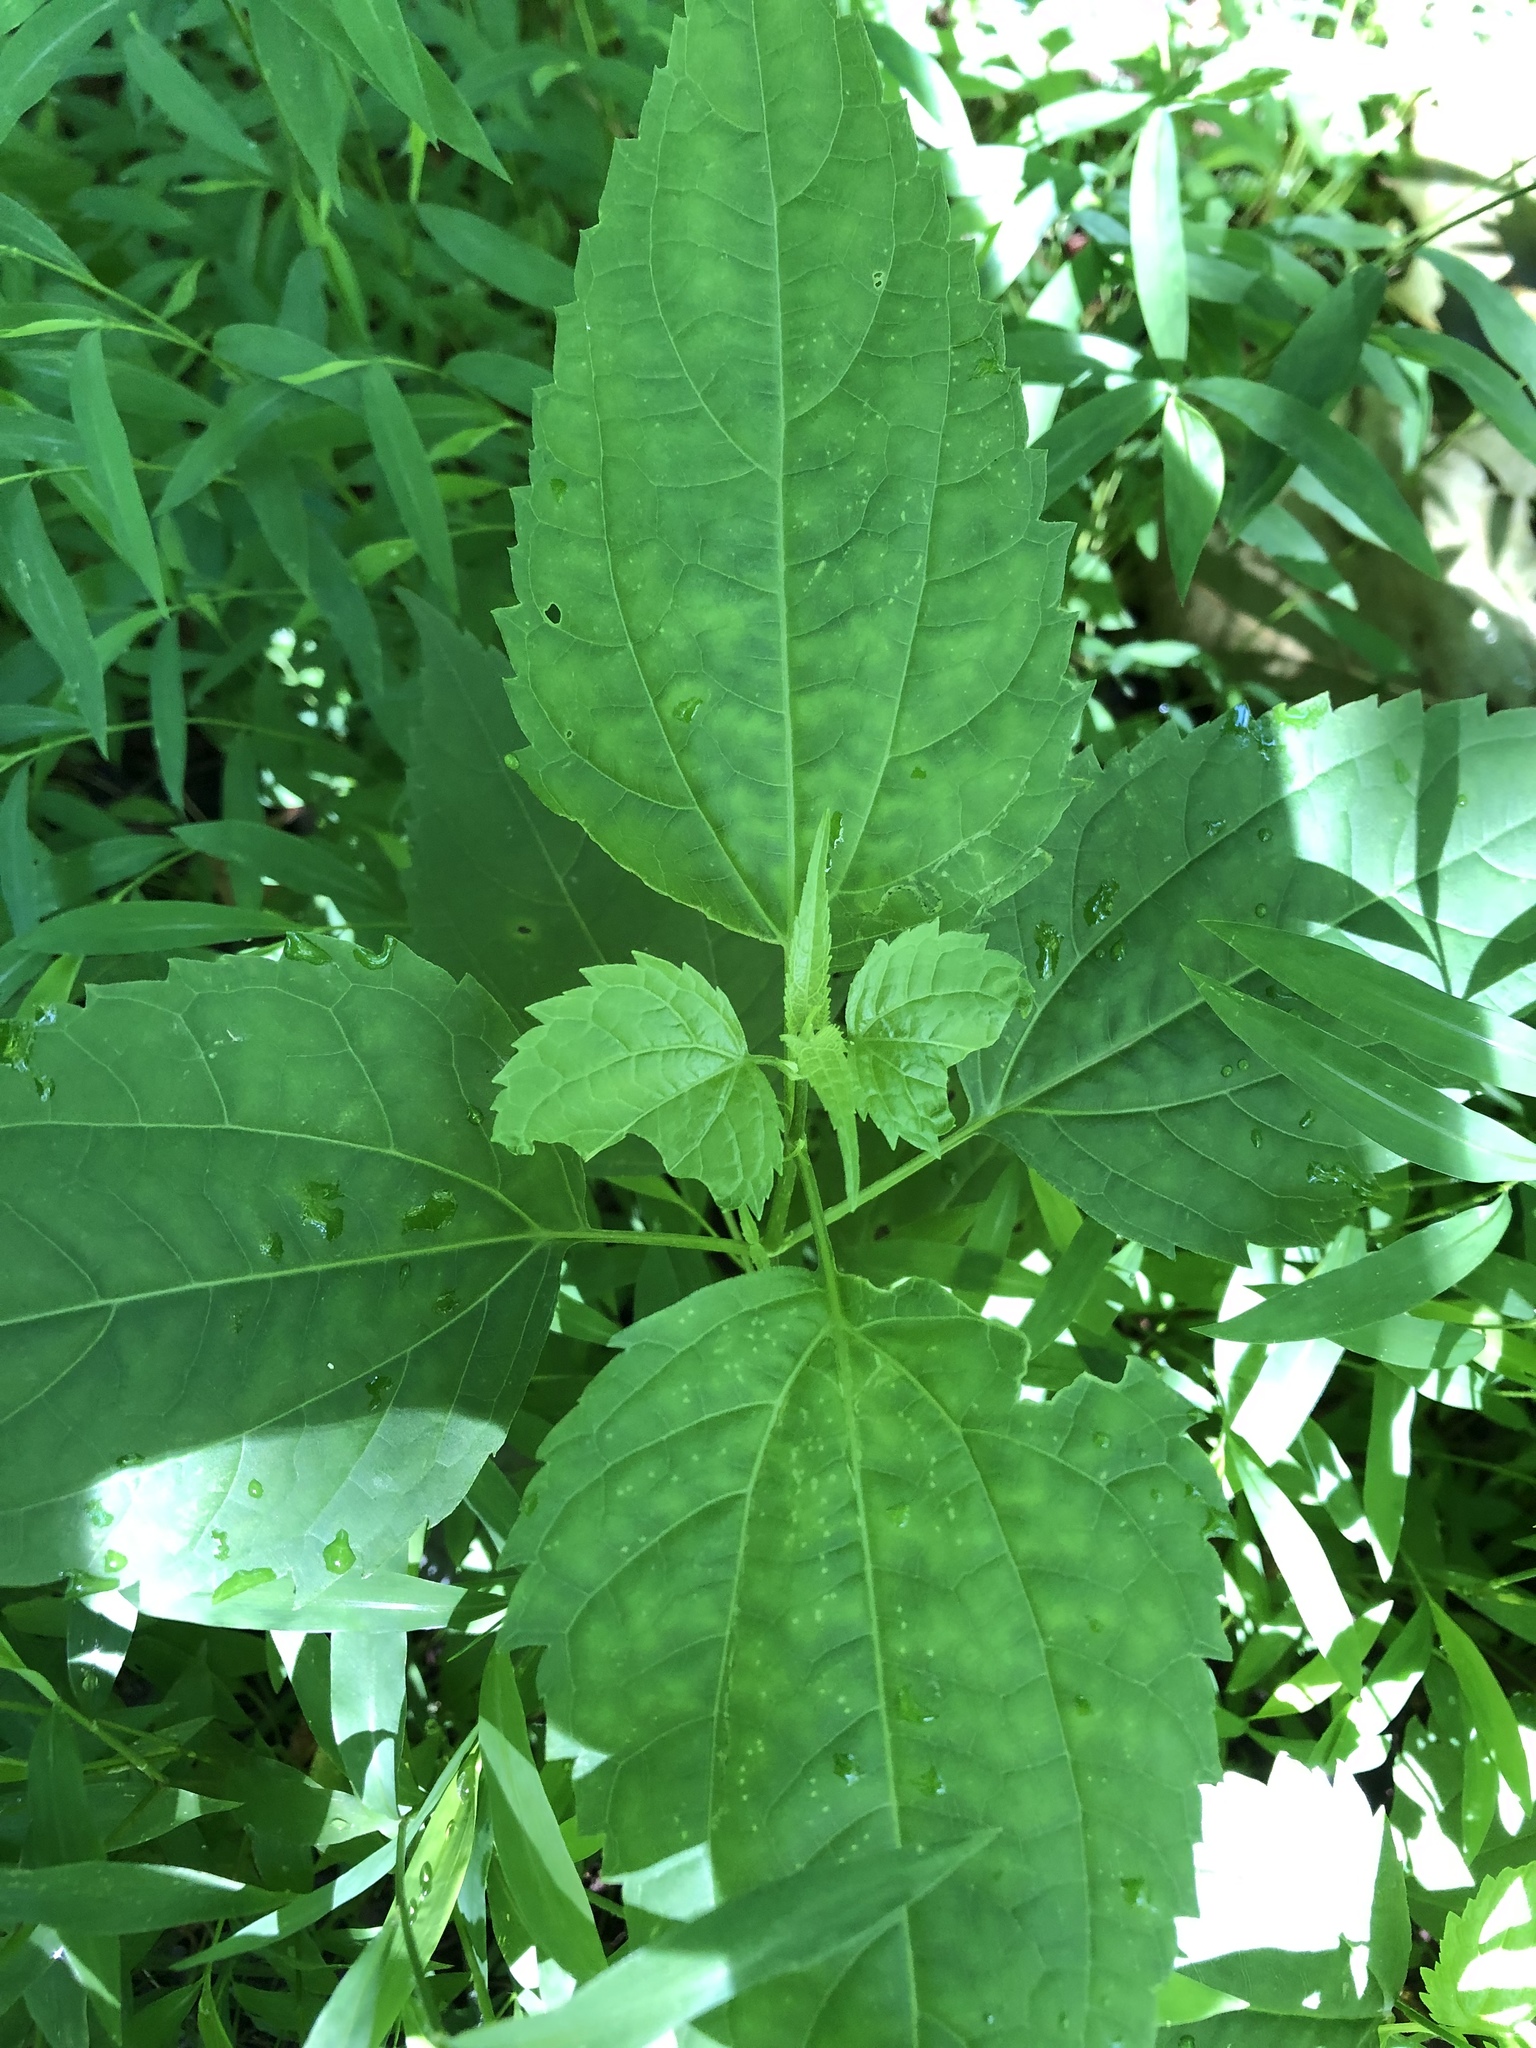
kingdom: Plantae
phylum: Tracheophyta
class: Magnoliopsida
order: Asterales
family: Asteraceae
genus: Ageratina
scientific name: Ageratina altissima
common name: White snakeroot
